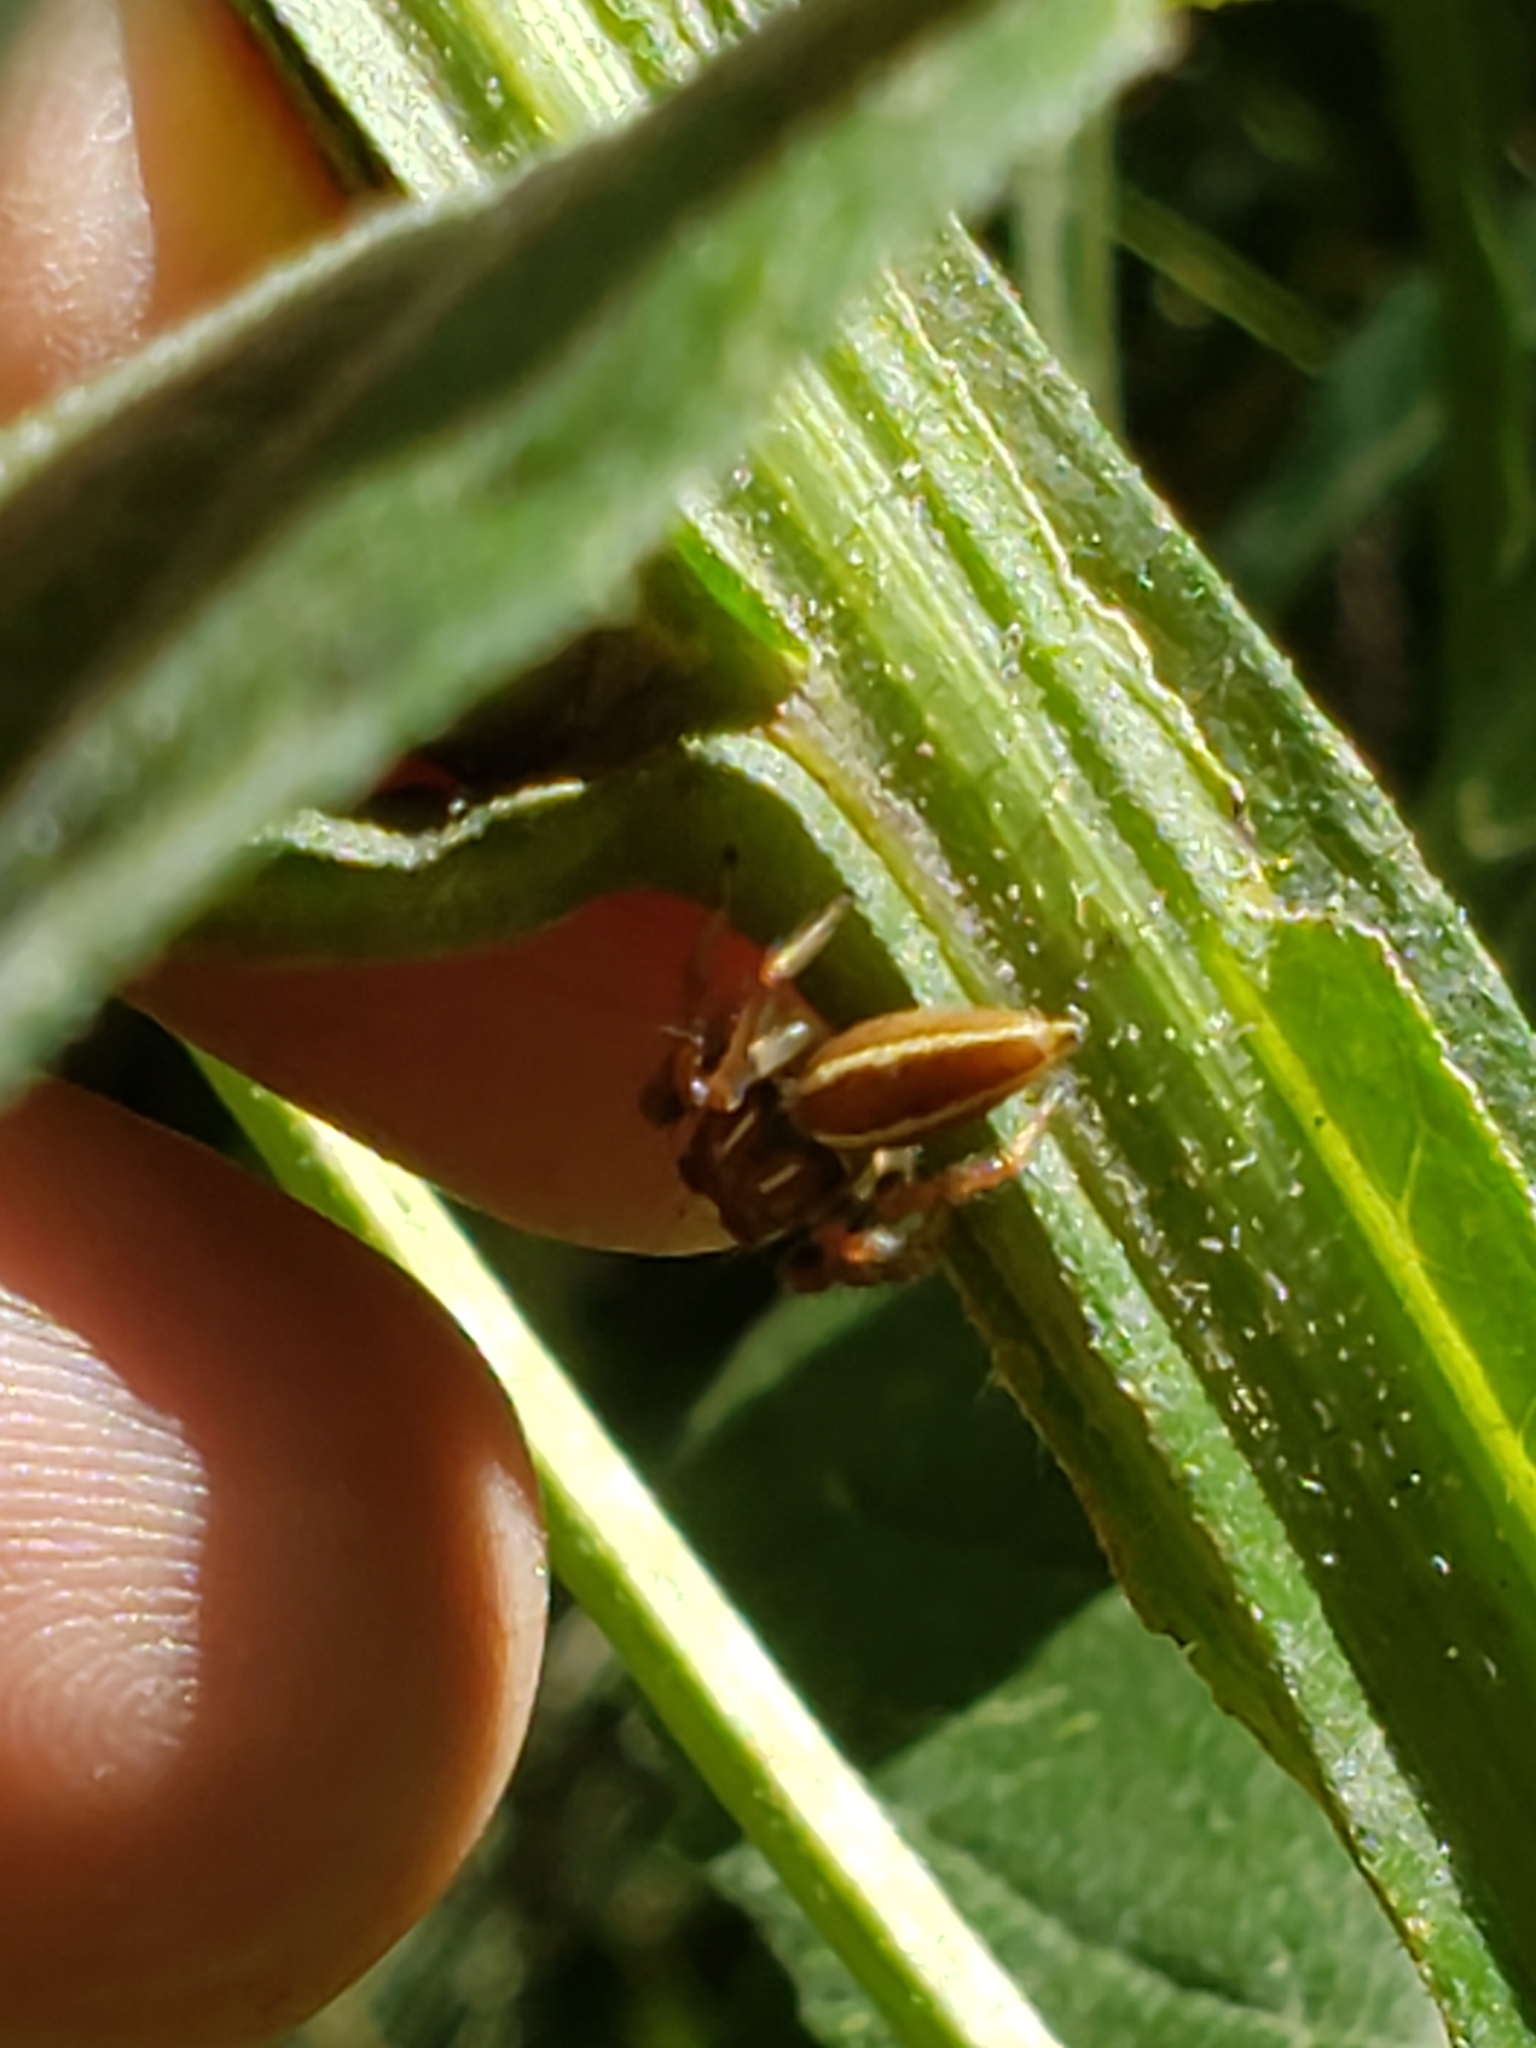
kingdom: Animalia
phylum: Arthropoda
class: Arachnida
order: Araneae
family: Salticidae
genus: Colonus
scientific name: Colonus sylvanus
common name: Jumping spiders
